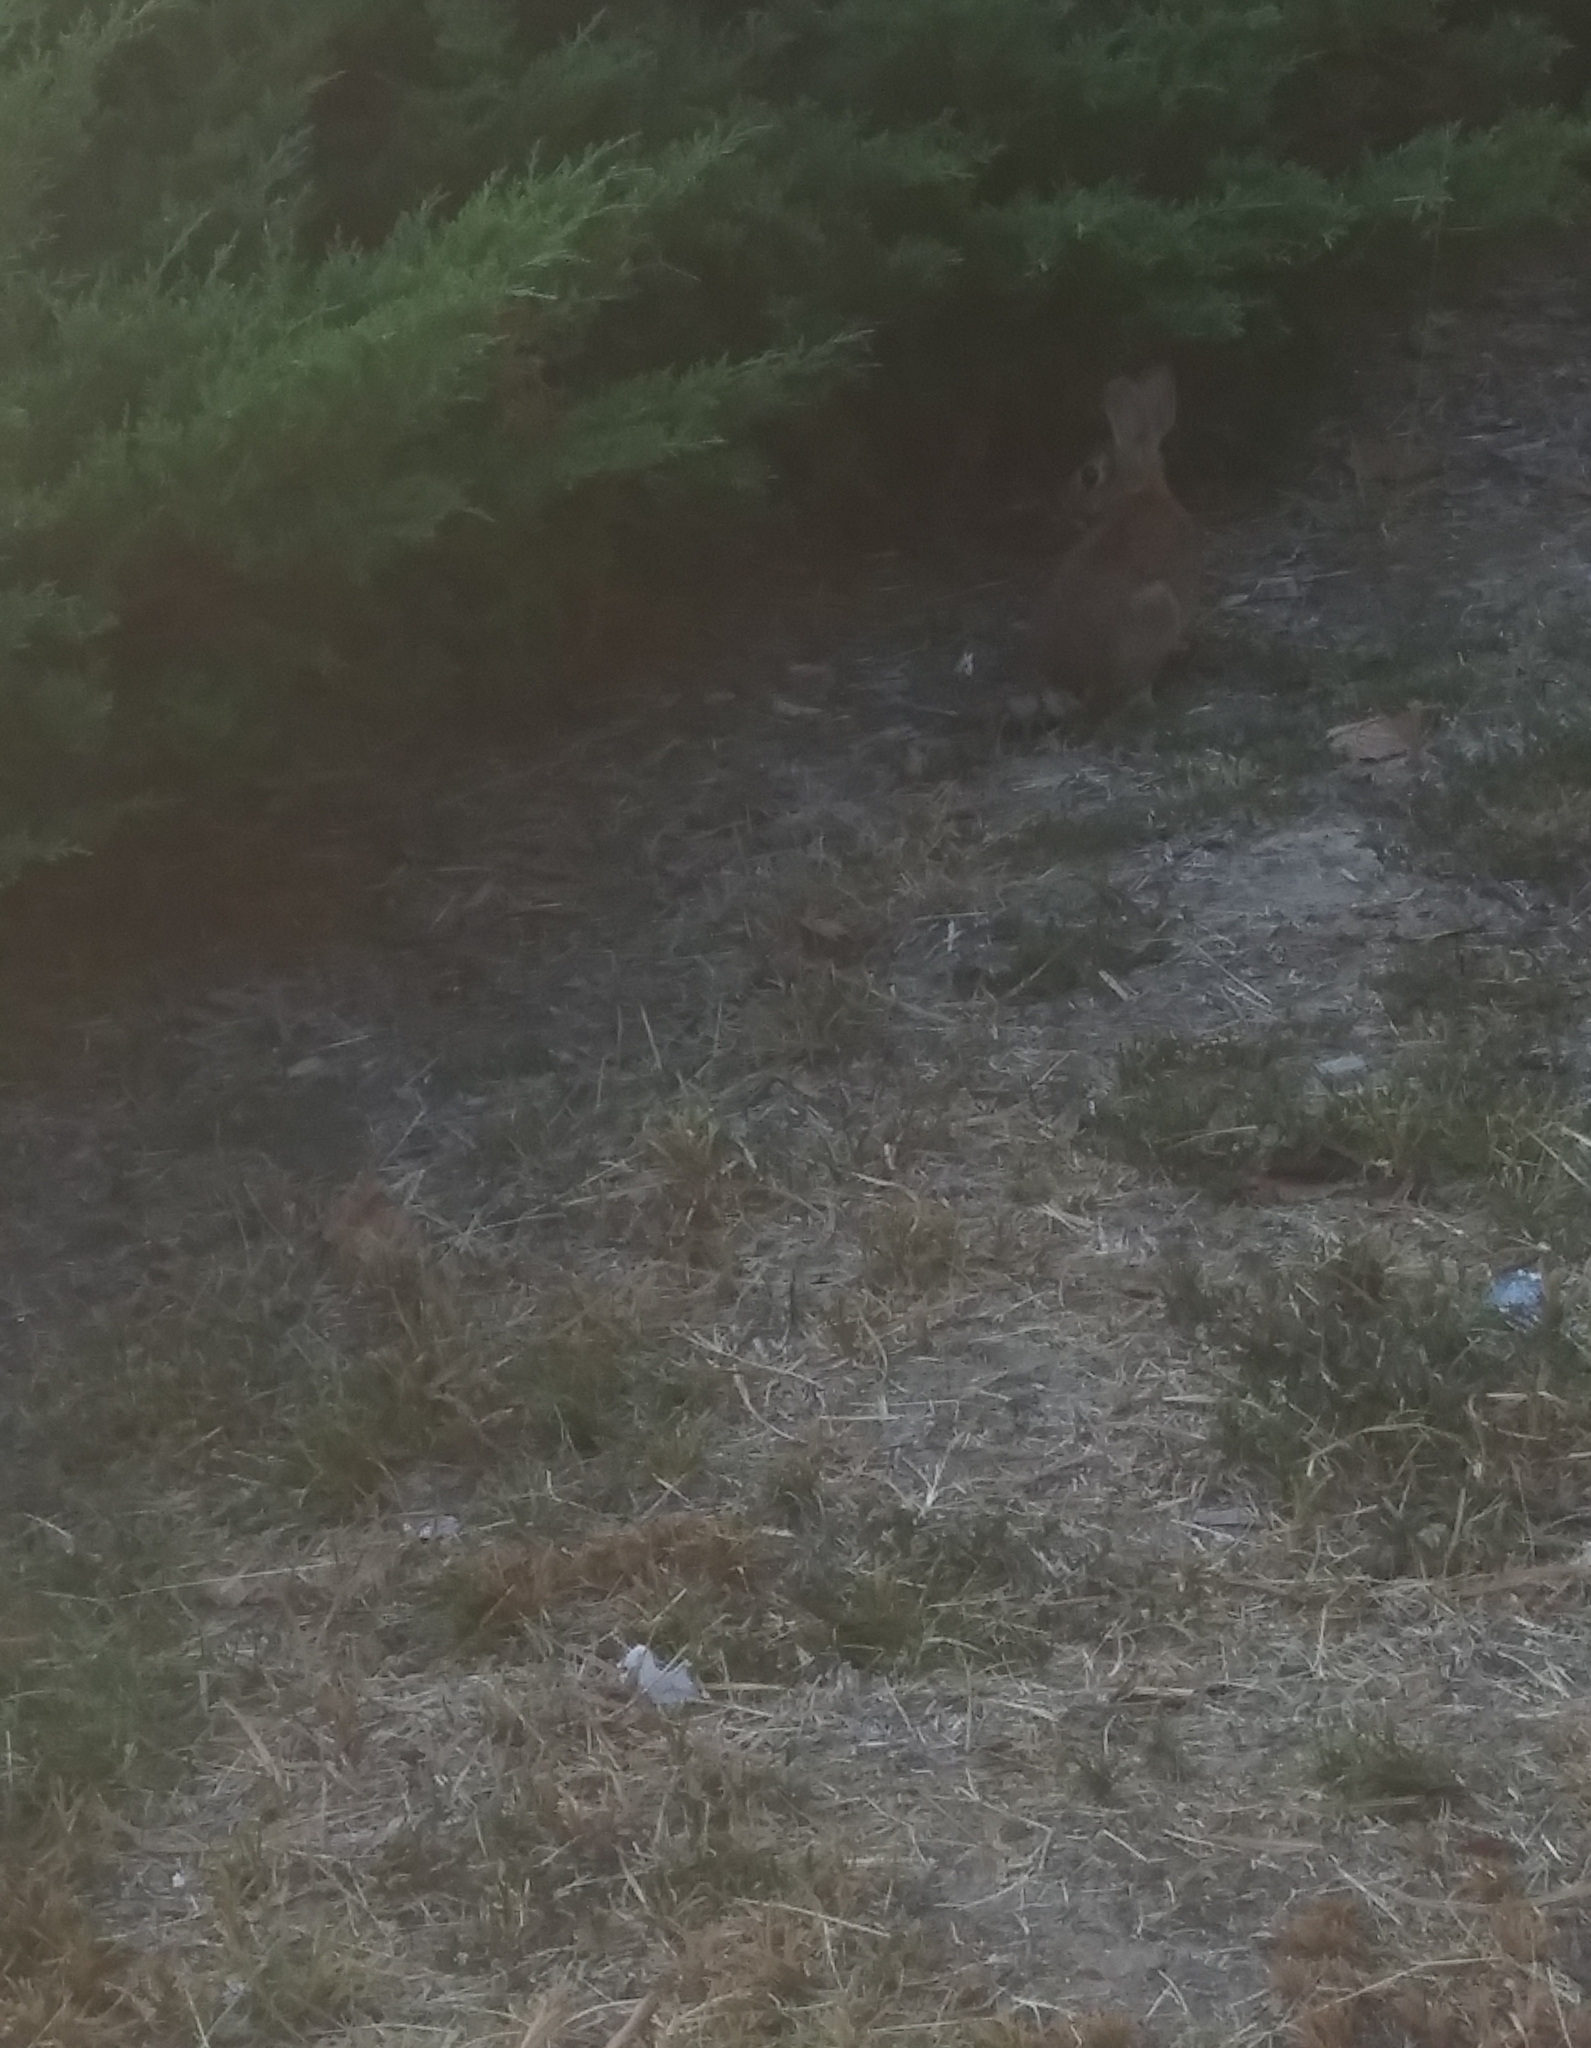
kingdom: Animalia
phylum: Chordata
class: Mammalia
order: Lagomorpha
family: Leporidae
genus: Sylvilagus
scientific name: Sylvilagus floridanus
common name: Eastern cottontail
